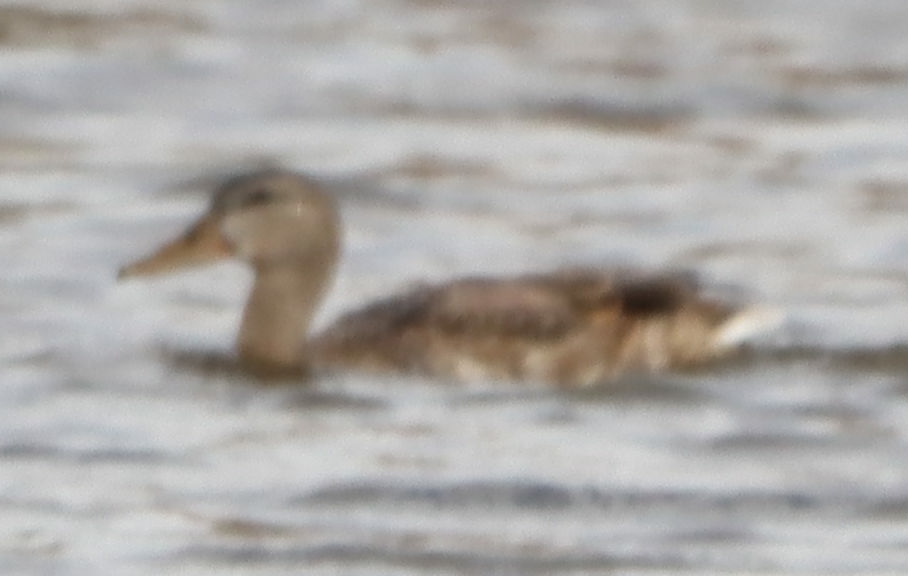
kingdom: Animalia
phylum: Chordata
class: Aves
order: Anseriformes
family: Anatidae
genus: Anas
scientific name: Anas platyrhynchos
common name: Mallard
